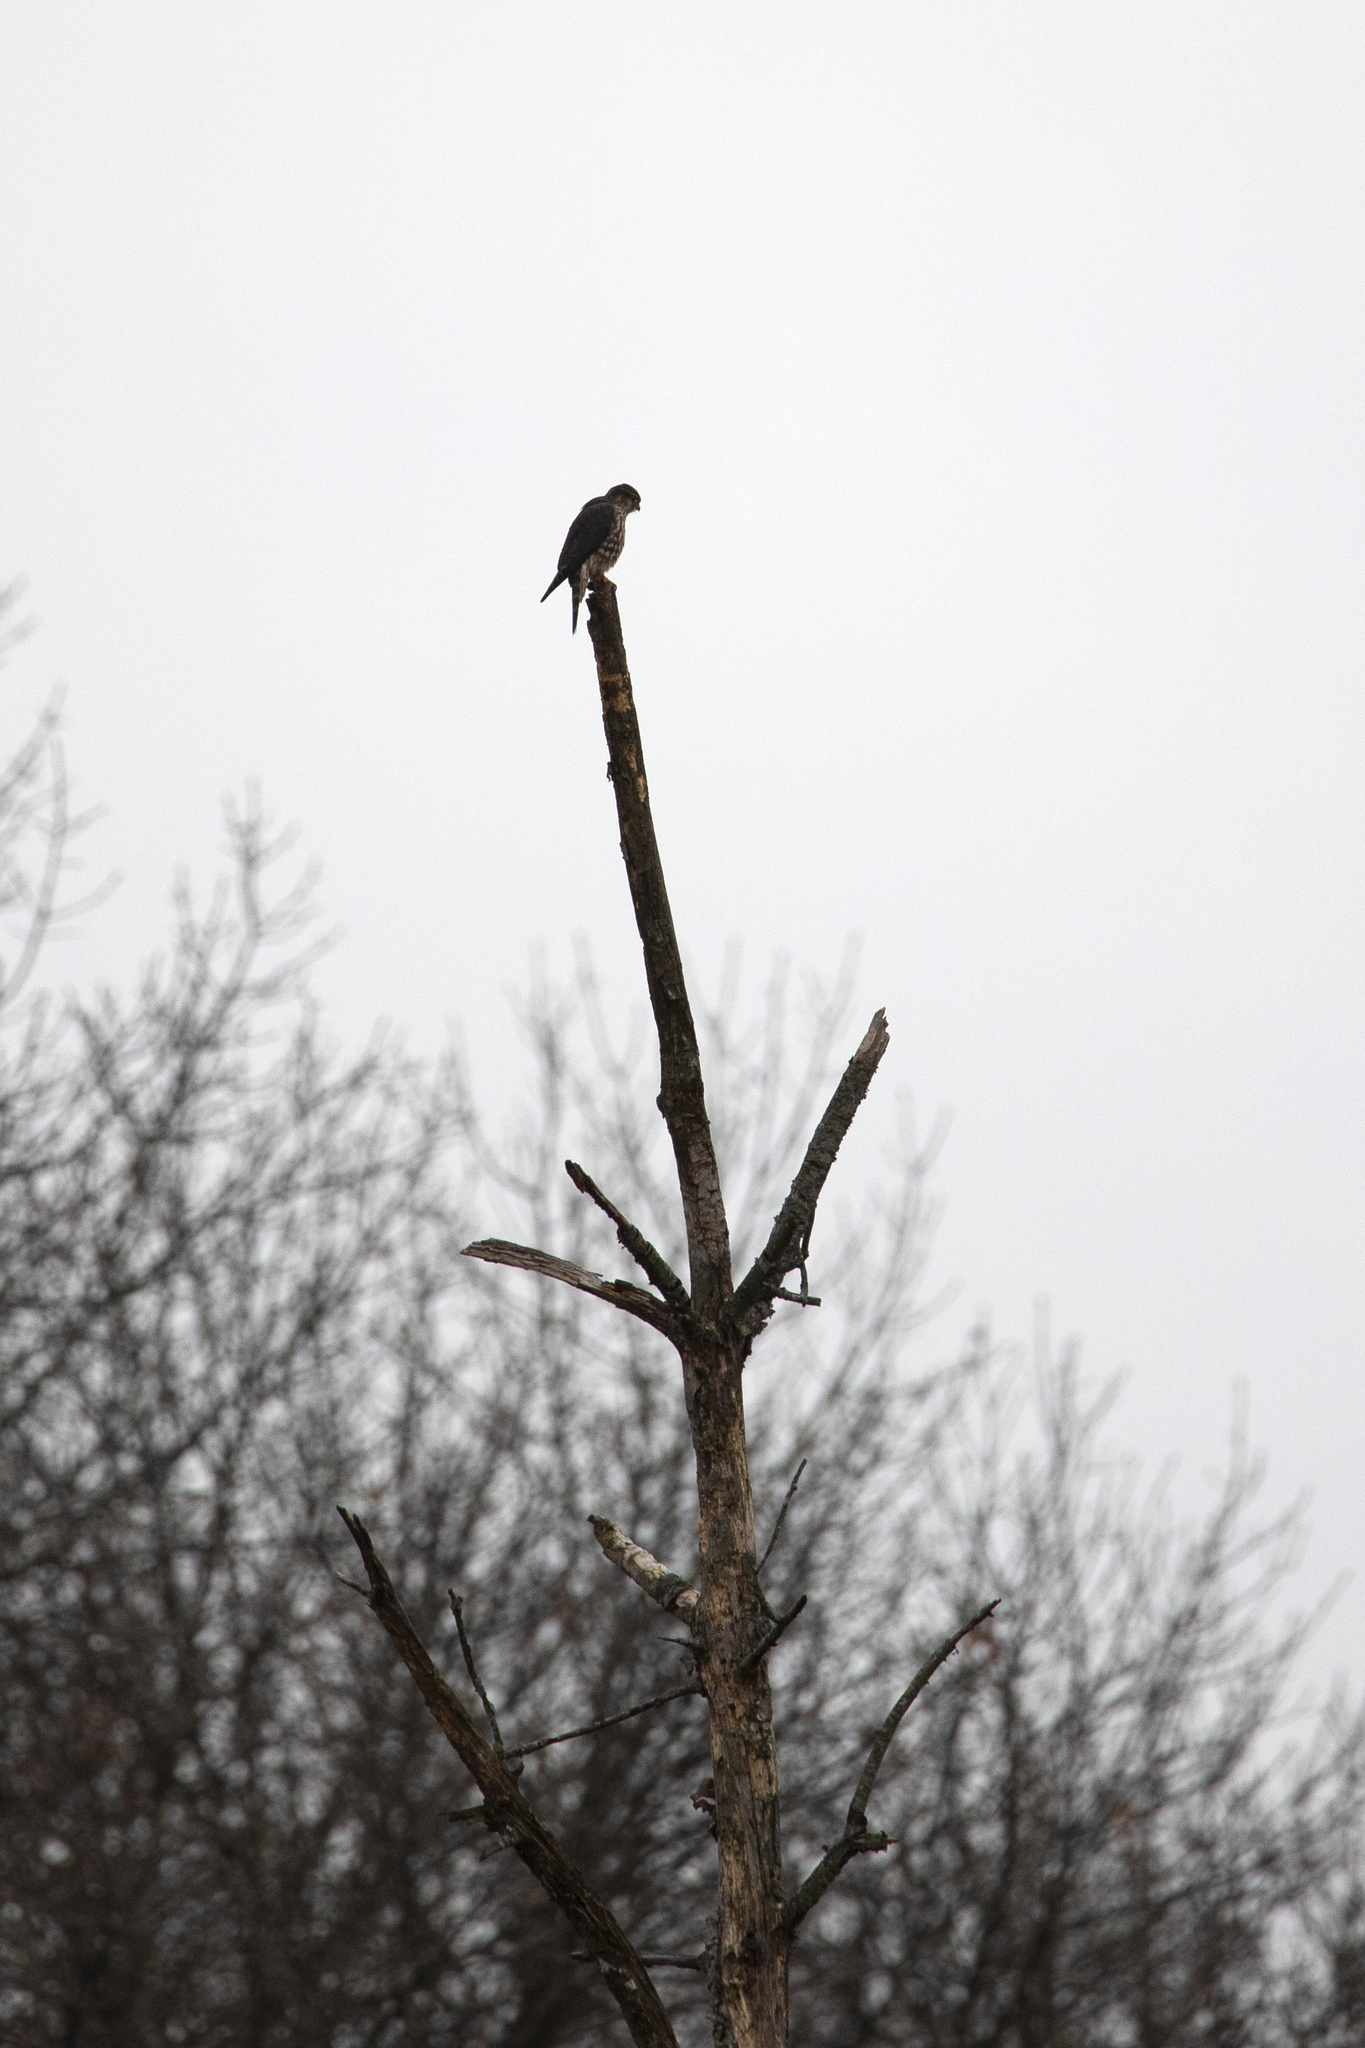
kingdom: Animalia
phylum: Chordata
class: Aves
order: Falconiformes
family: Falconidae
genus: Falco
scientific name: Falco columbarius
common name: Merlin
